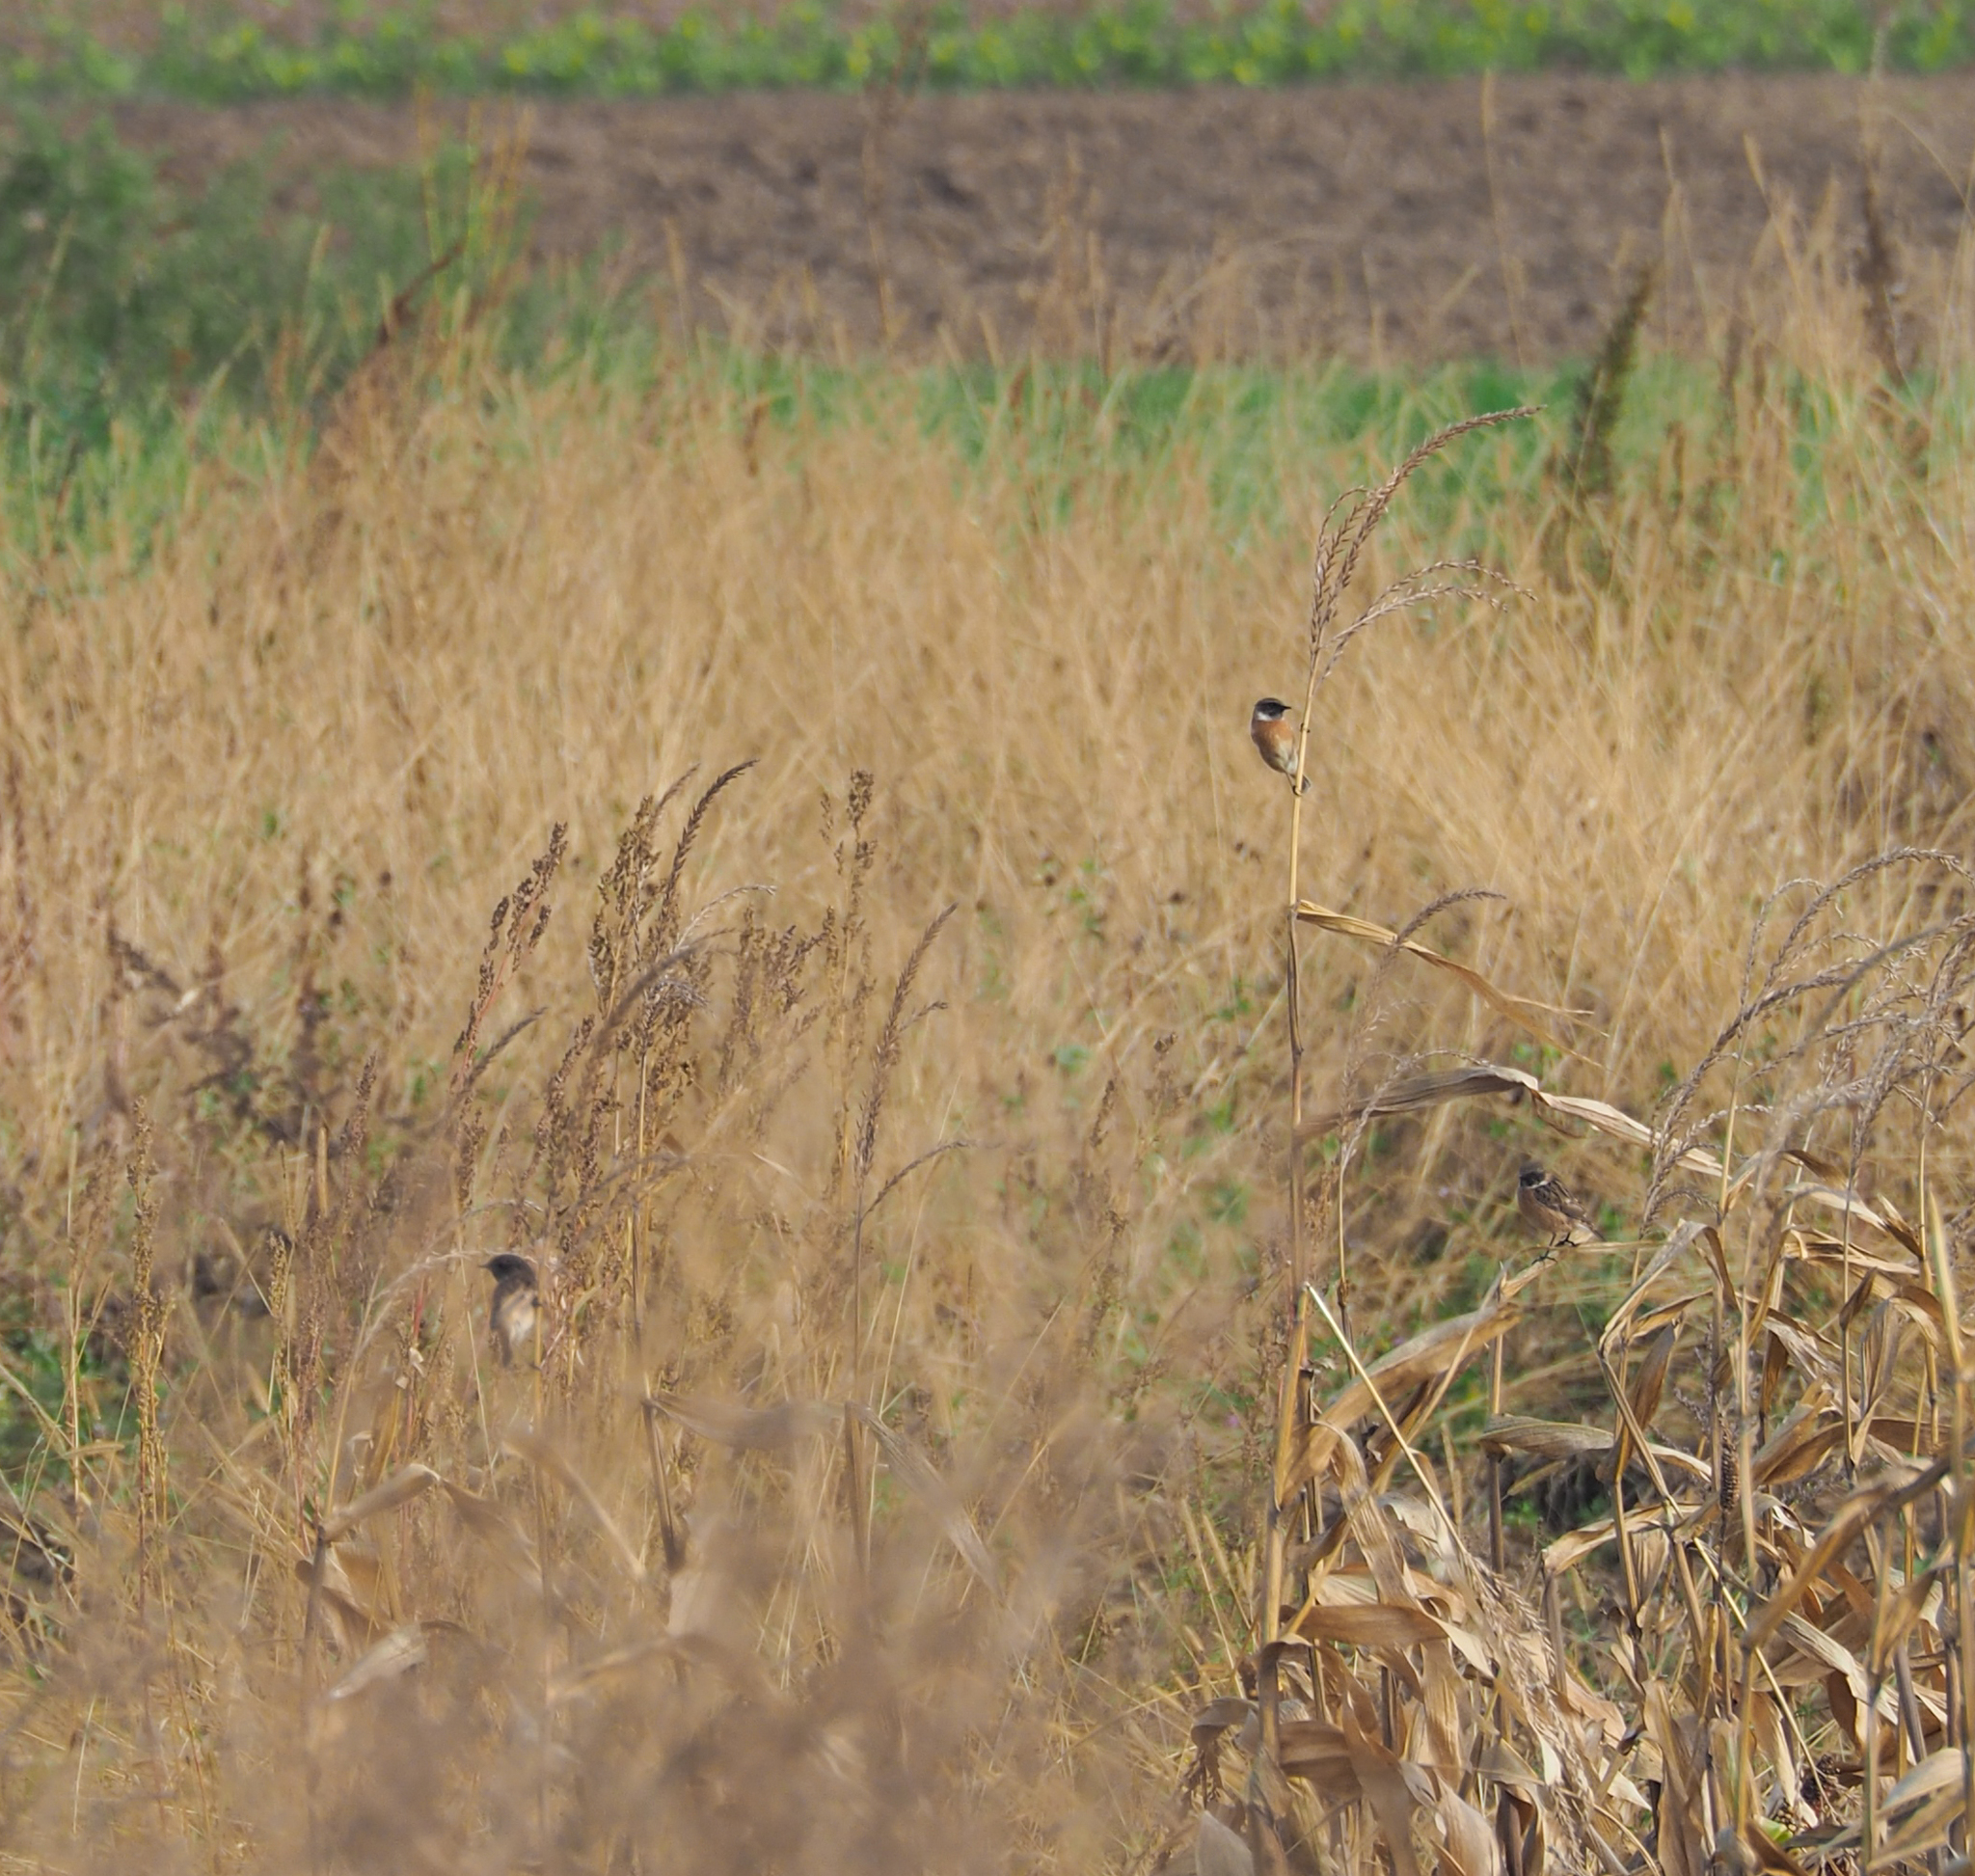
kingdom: Animalia
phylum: Chordata
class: Aves
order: Passeriformes
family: Muscicapidae
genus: Saxicola
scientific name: Saxicola rubicola
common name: European stonechat
